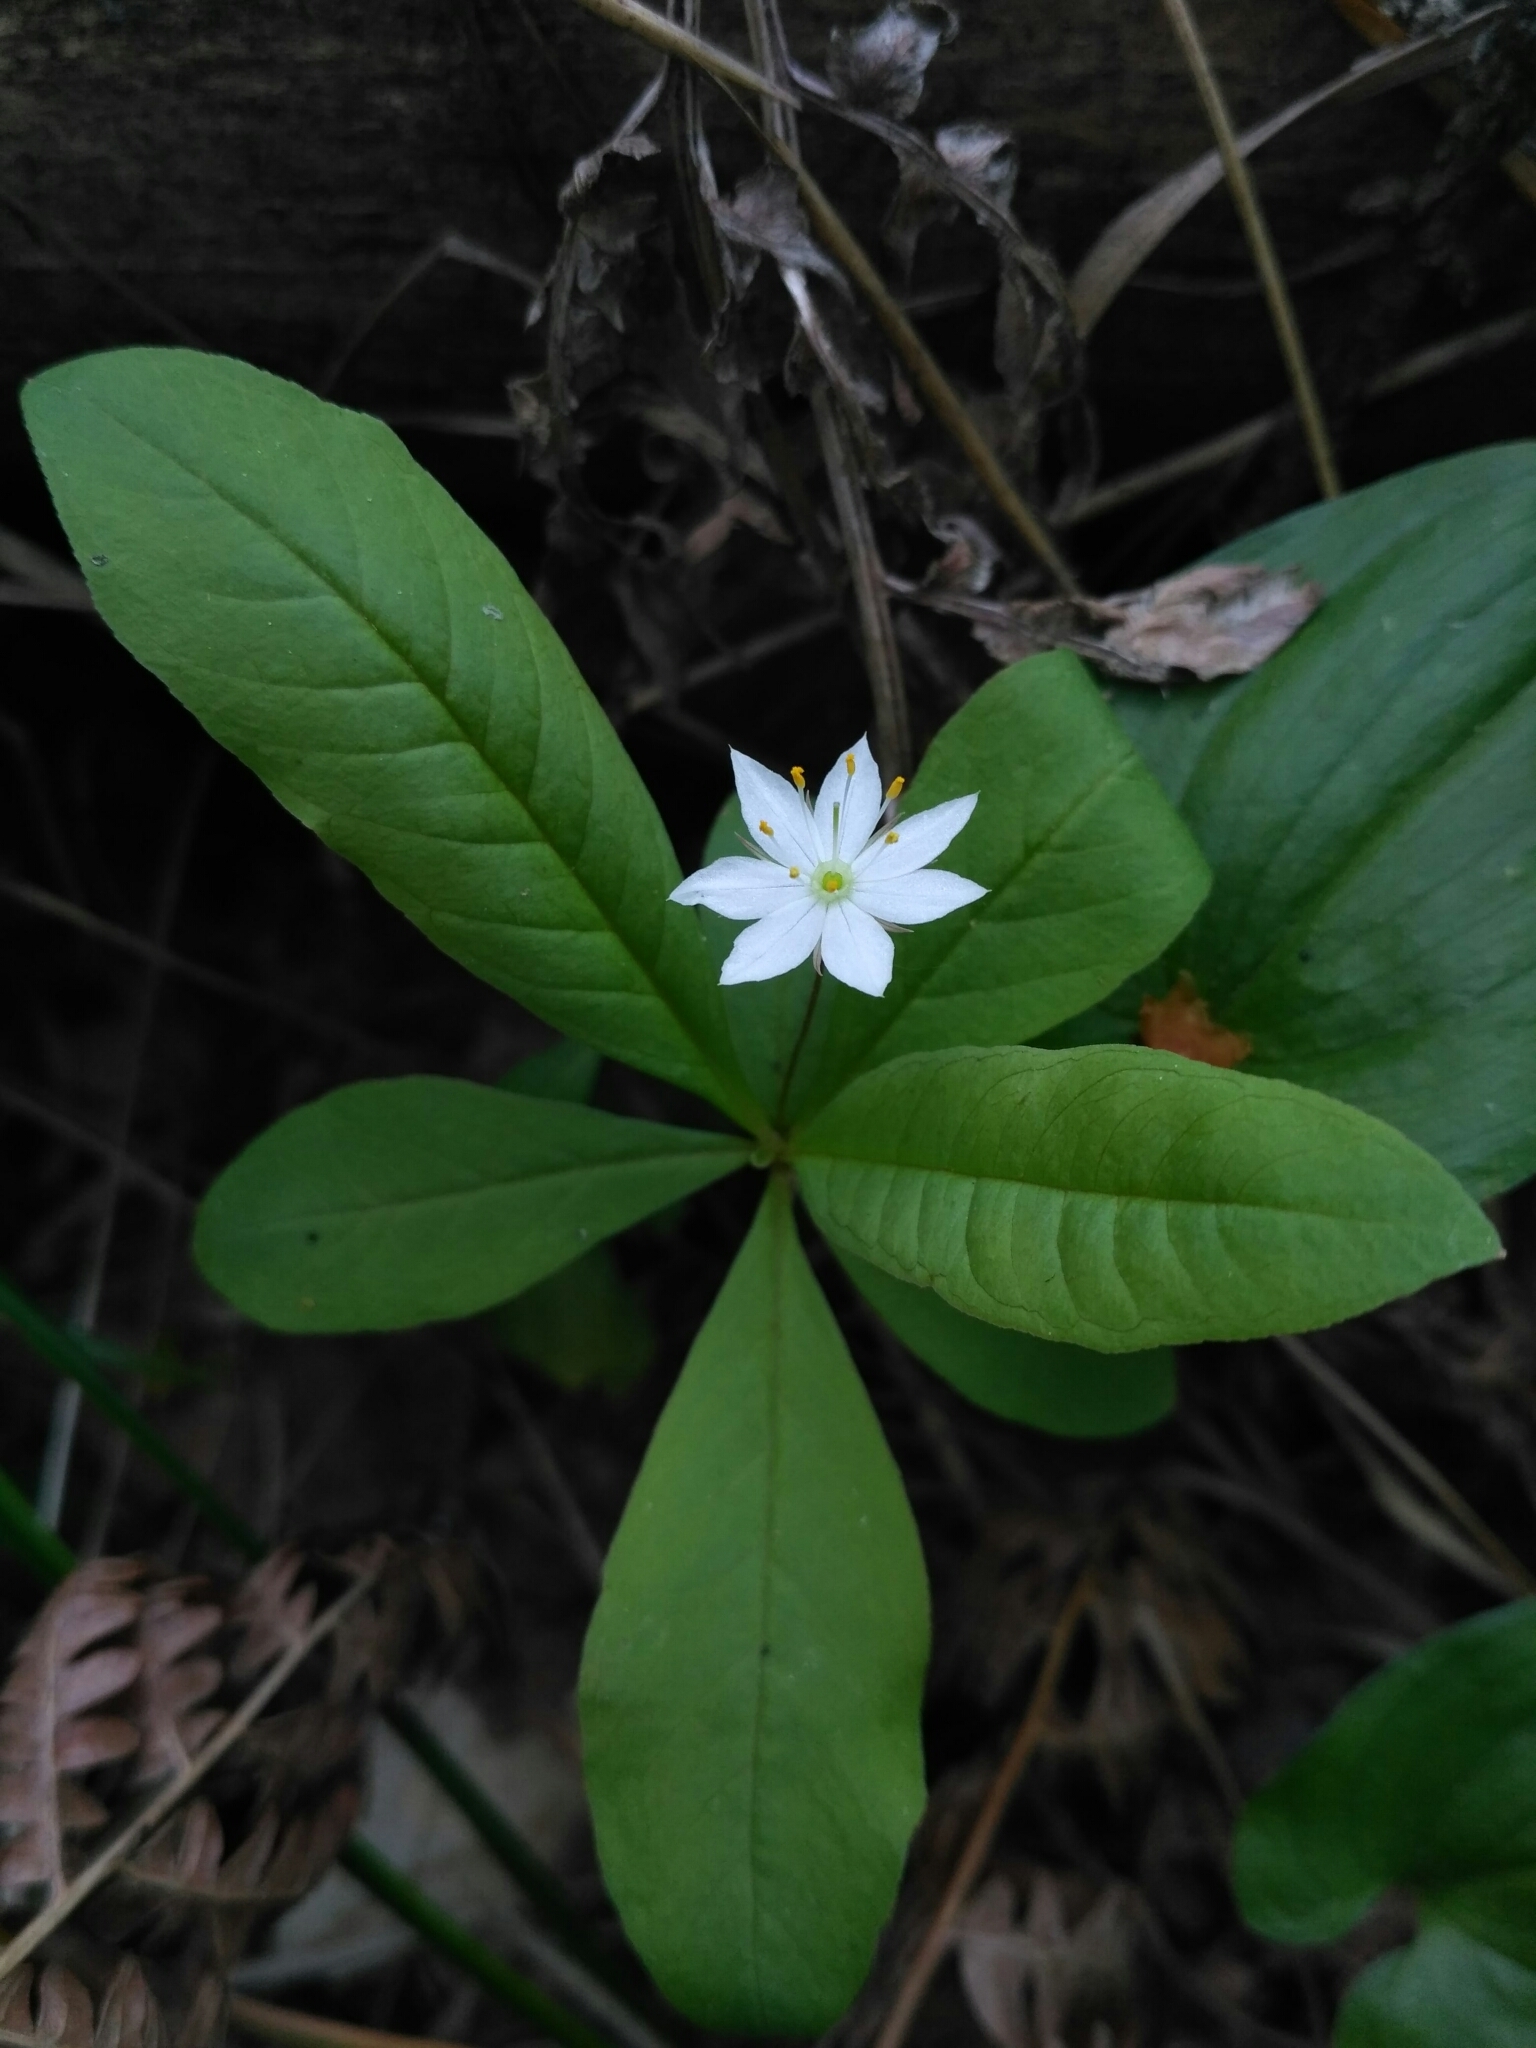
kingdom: Plantae
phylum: Tracheophyta
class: Magnoliopsida
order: Ericales
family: Primulaceae
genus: Lysimachia
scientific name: Lysimachia europaea
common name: Arctic starflower
